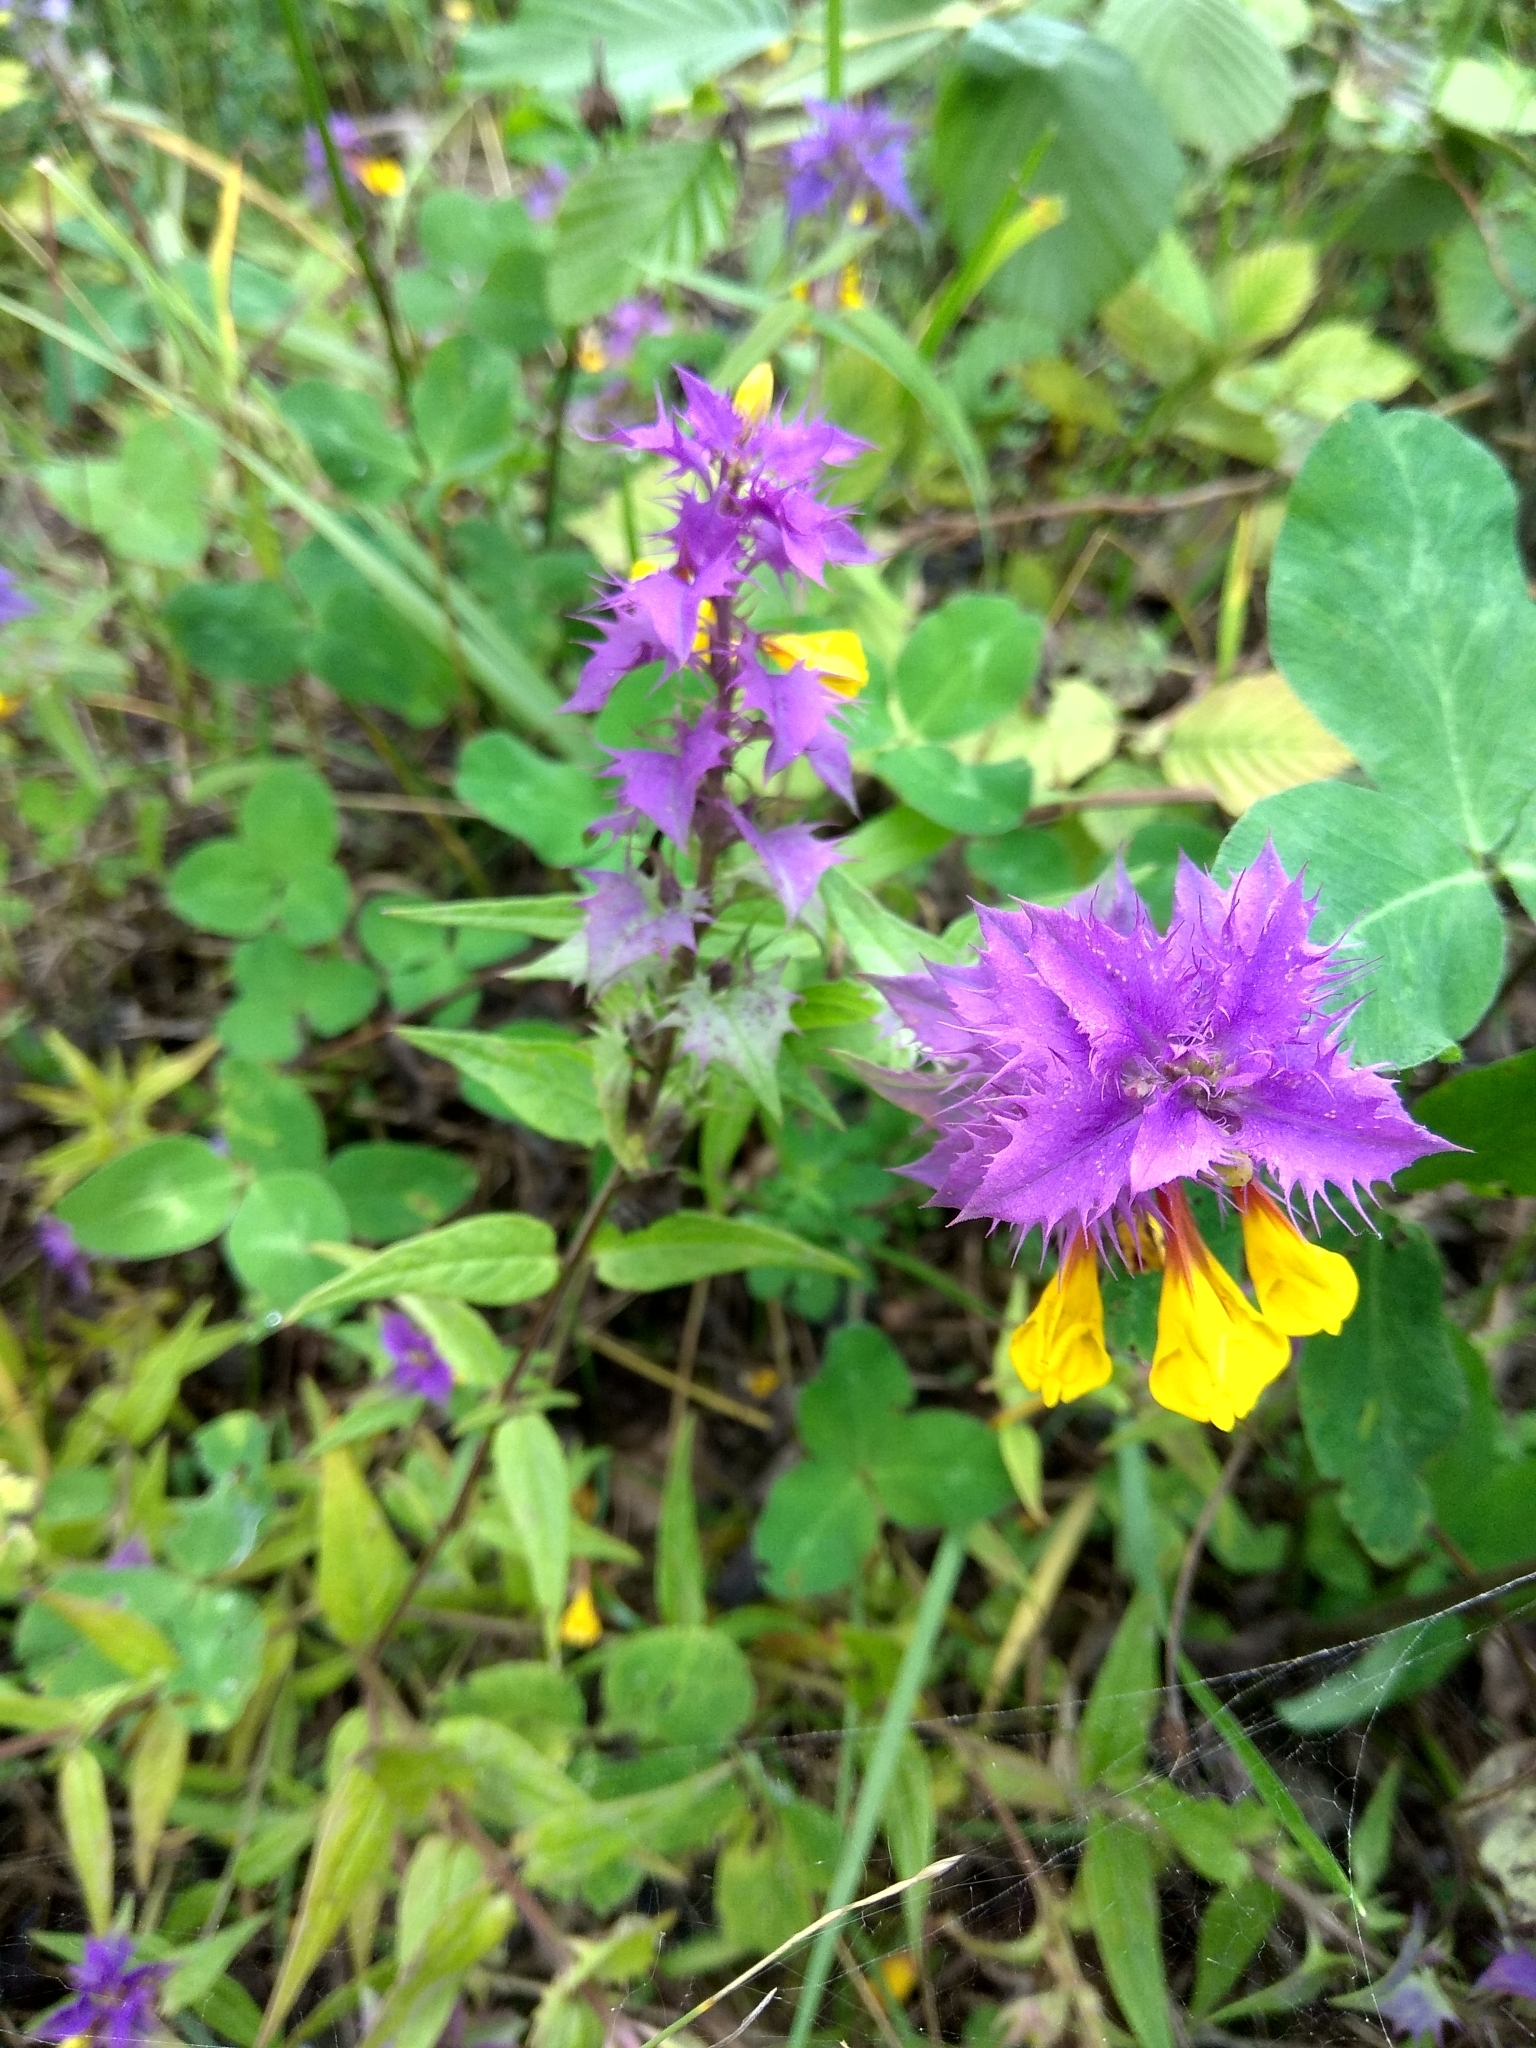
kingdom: Plantae
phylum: Tracheophyta
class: Magnoliopsida
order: Lamiales
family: Orobanchaceae
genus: Melampyrum
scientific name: Melampyrum nemorosum
